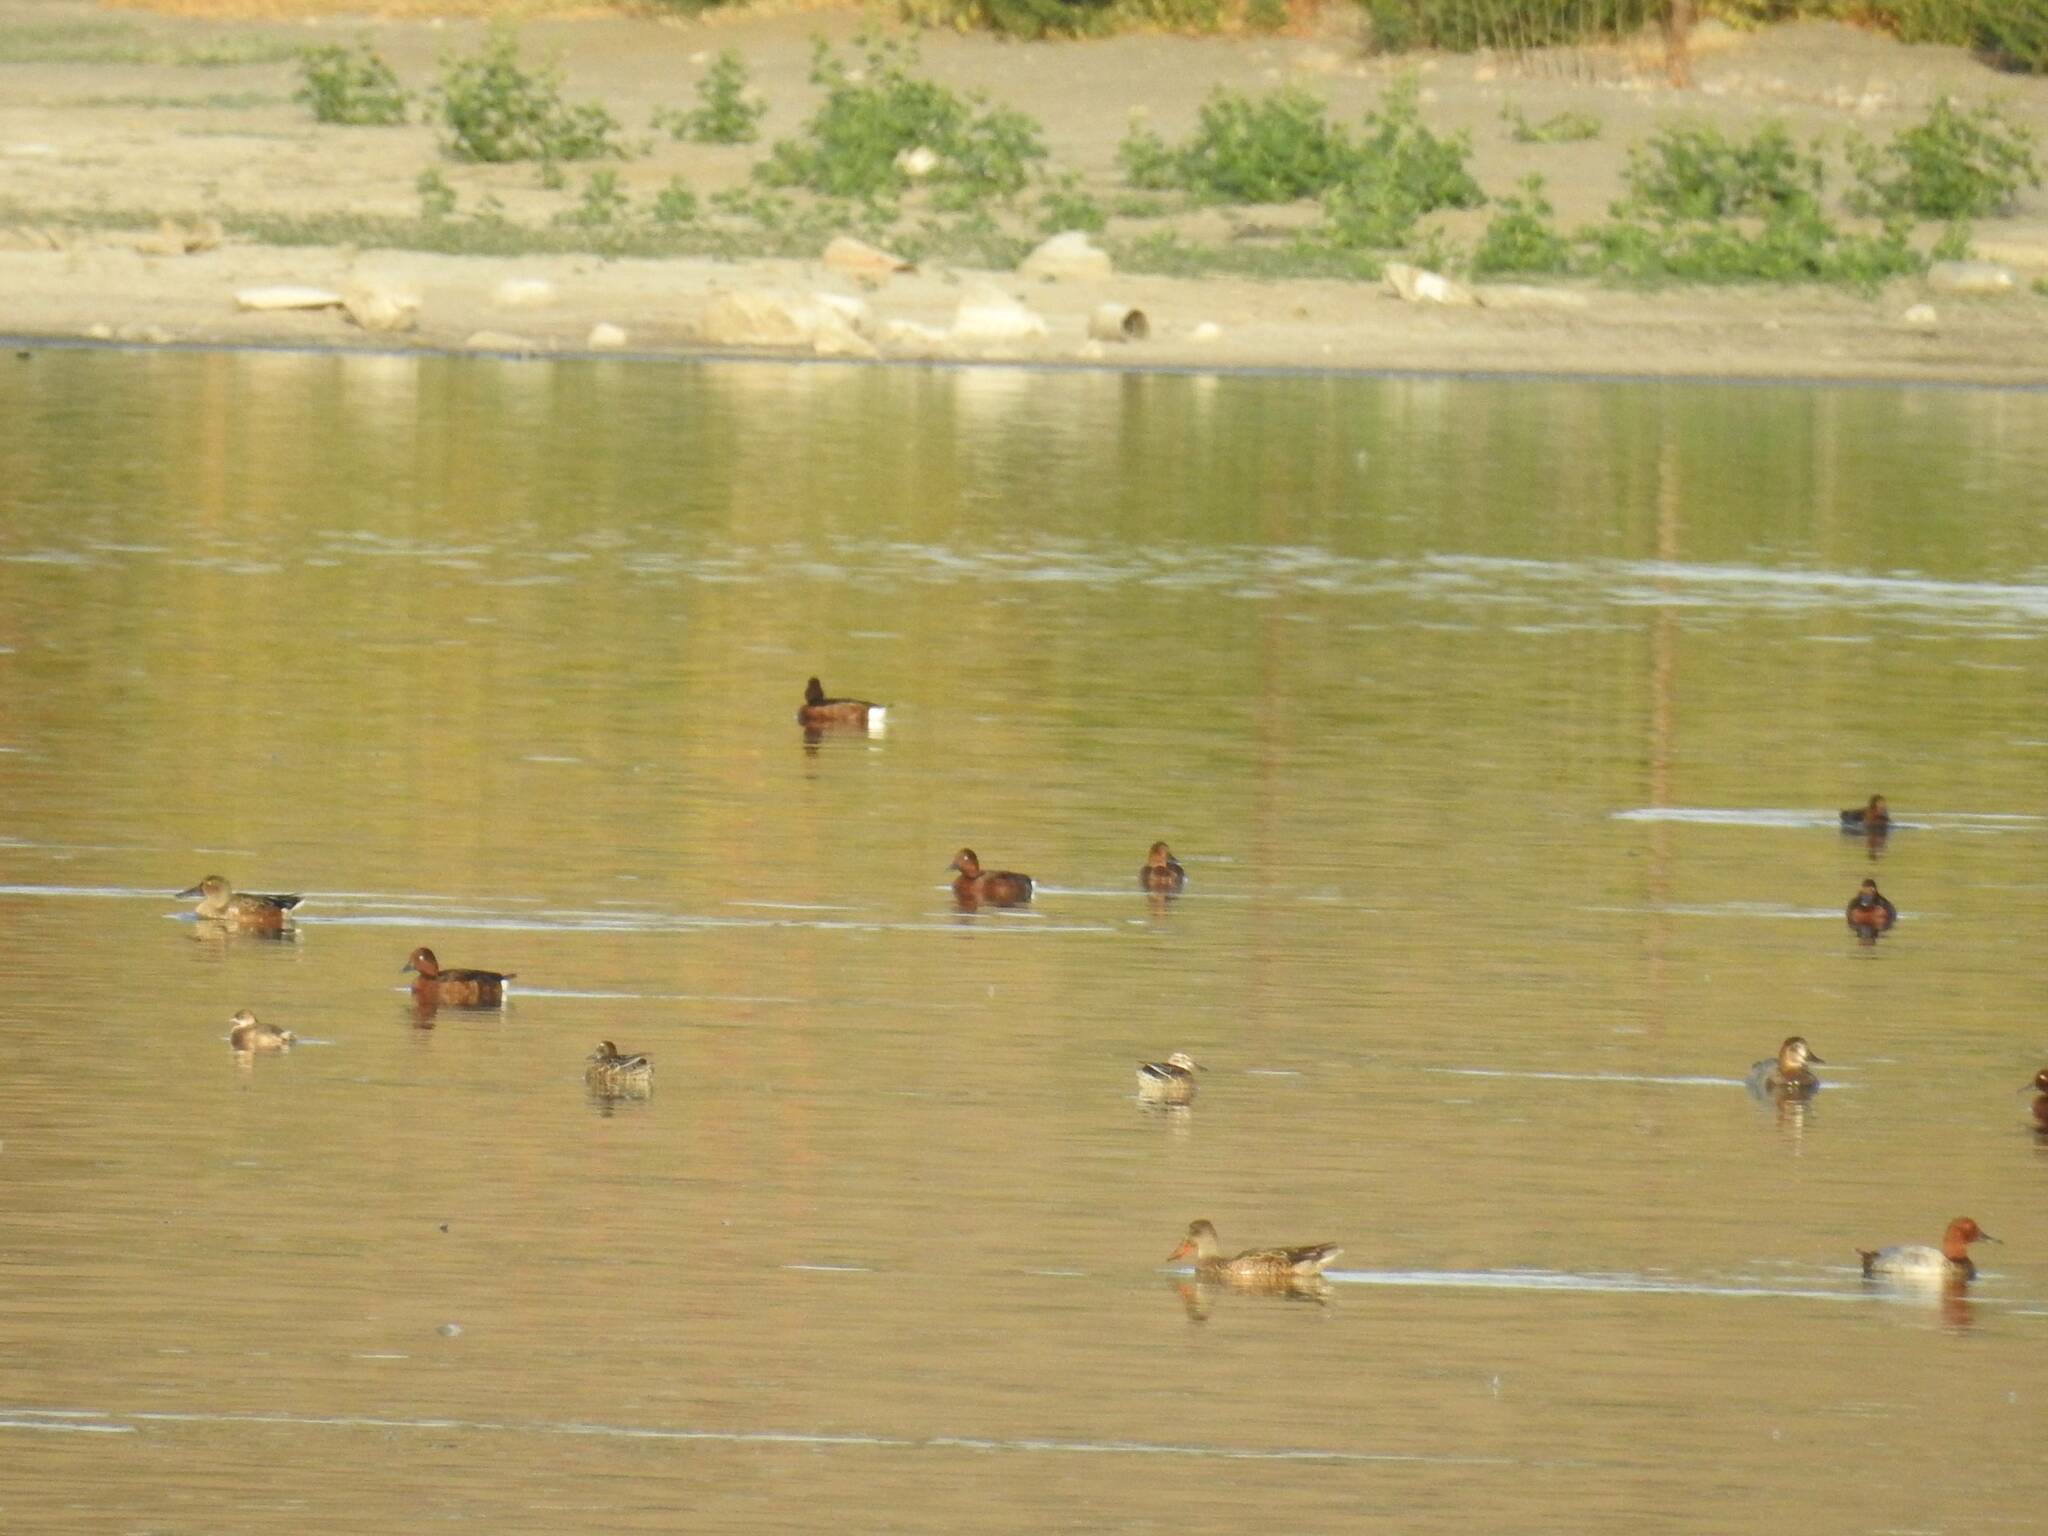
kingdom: Animalia
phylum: Chordata
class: Aves
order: Anseriformes
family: Anatidae
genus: Aythya
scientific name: Aythya nyroca
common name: Ferruginous duck
